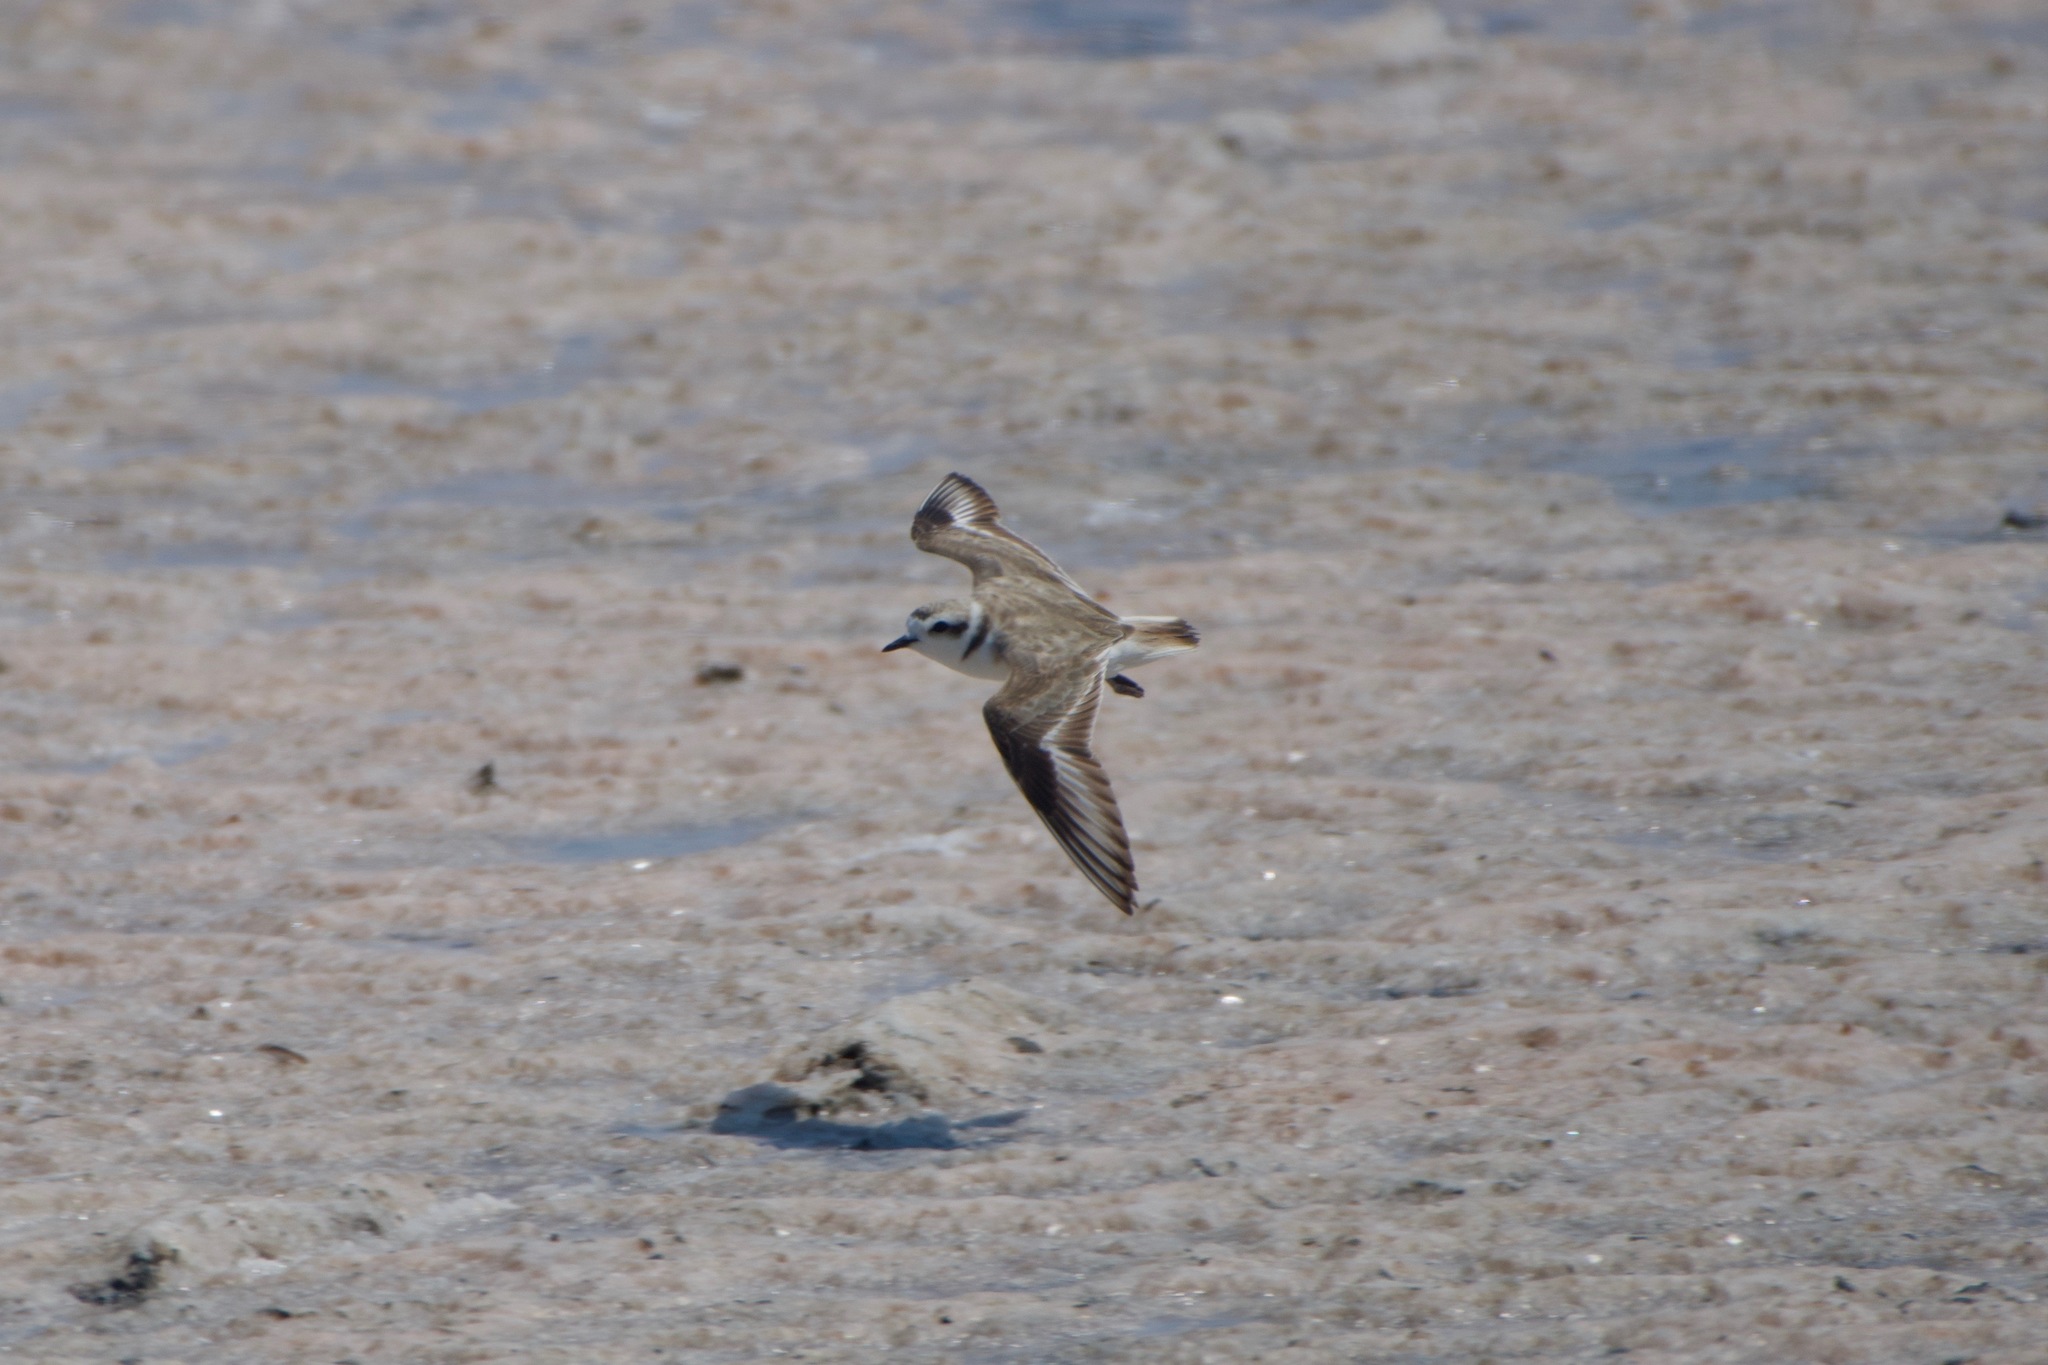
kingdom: Animalia
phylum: Chordata
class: Aves
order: Charadriiformes
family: Charadriidae
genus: Anarhynchus
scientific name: Anarhynchus
